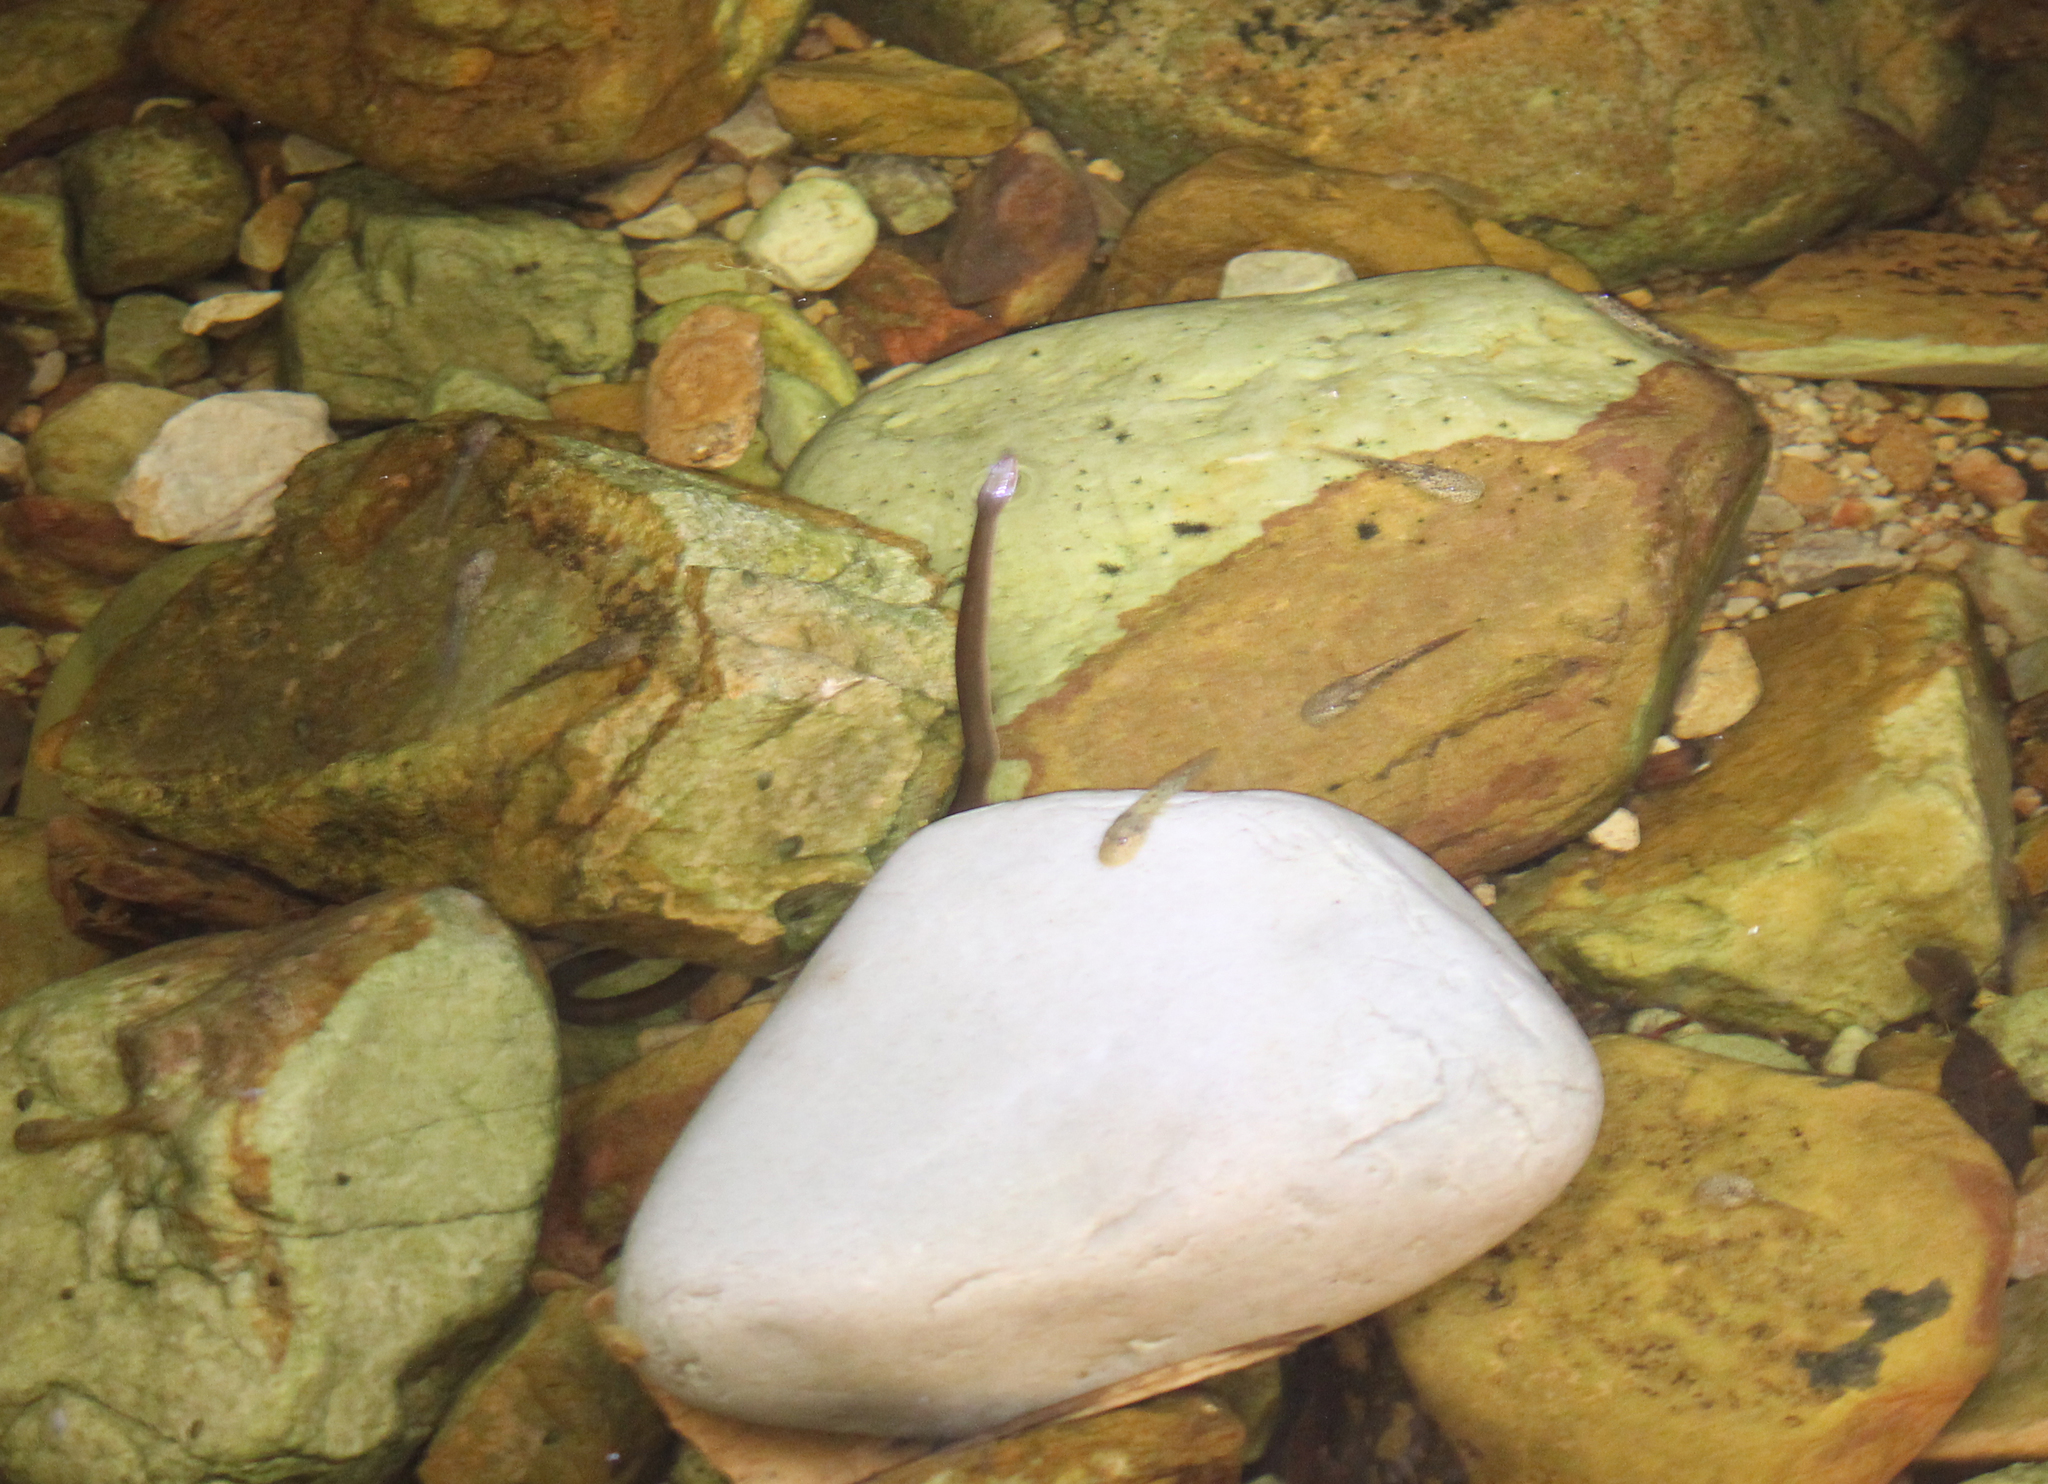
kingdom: Animalia
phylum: Chordata
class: Squamata
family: Lamprophiidae
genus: Lycodonomorphus
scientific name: Lycodonomorphus rufulus
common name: Brown water snake
